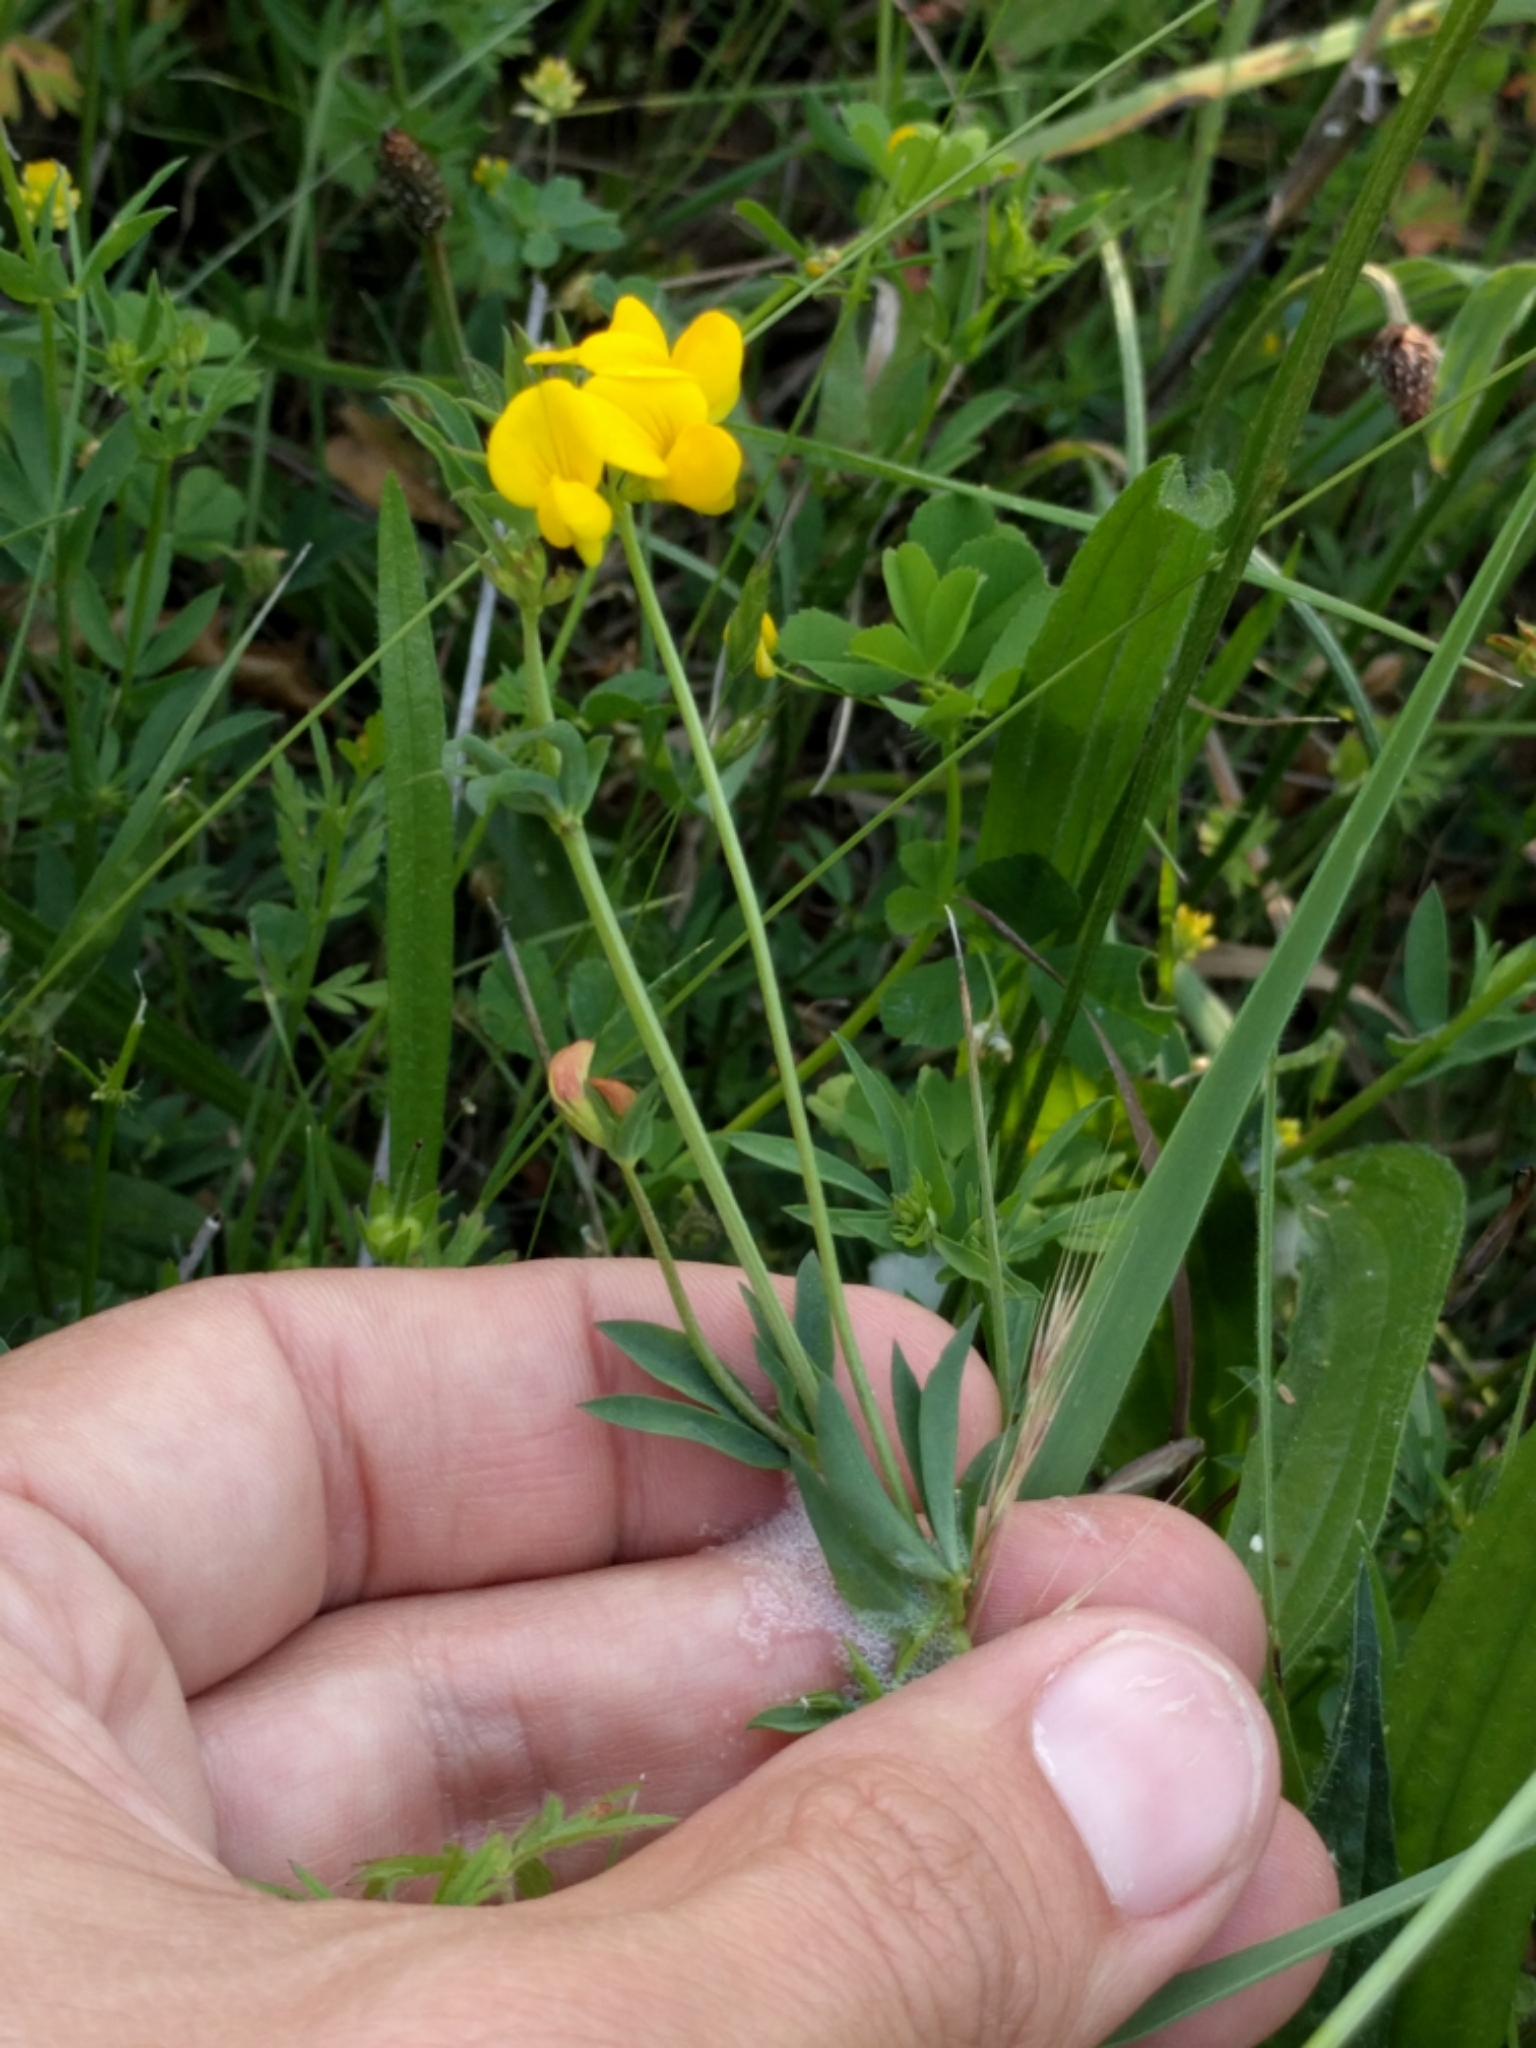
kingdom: Plantae
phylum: Tracheophyta
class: Magnoliopsida
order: Fabales
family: Fabaceae
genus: Lotus
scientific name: Lotus corniculatus
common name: Common bird's-foot-trefoil
